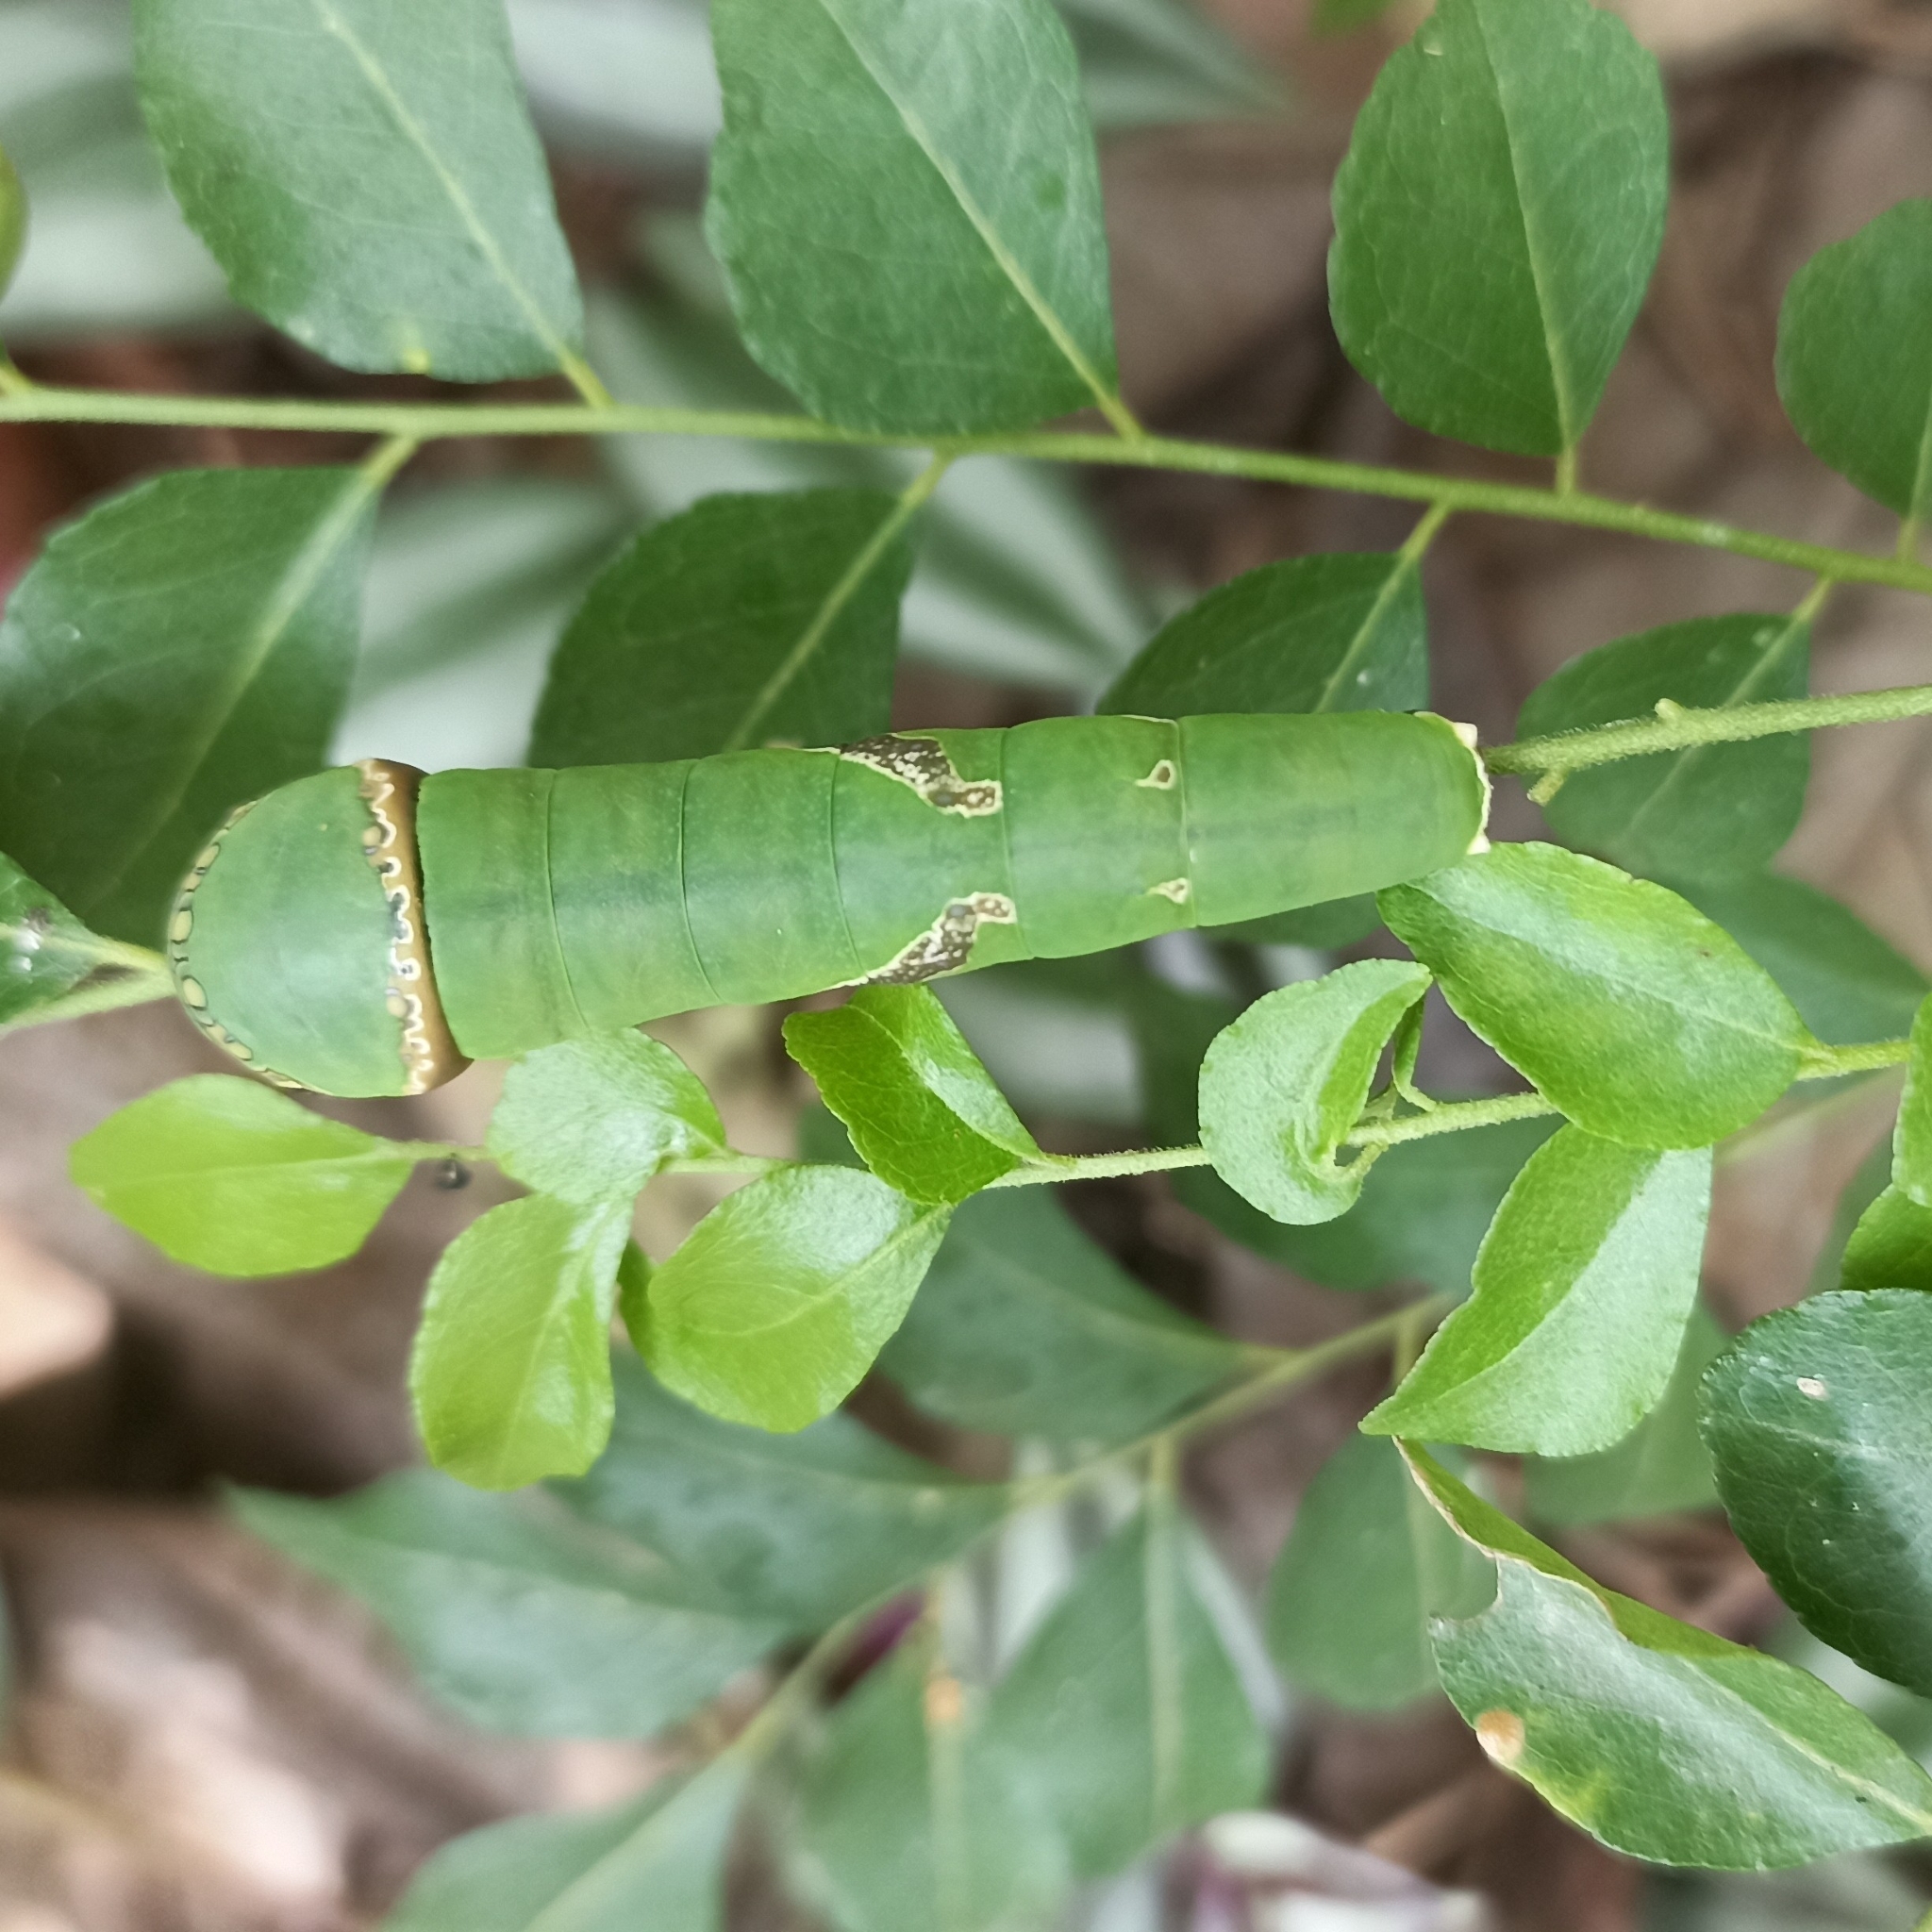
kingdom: Animalia
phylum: Arthropoda
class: Insecta
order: Lepidoptera
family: Papilionidae
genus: Papilio
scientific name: Papilio polytes
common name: Common mormon
